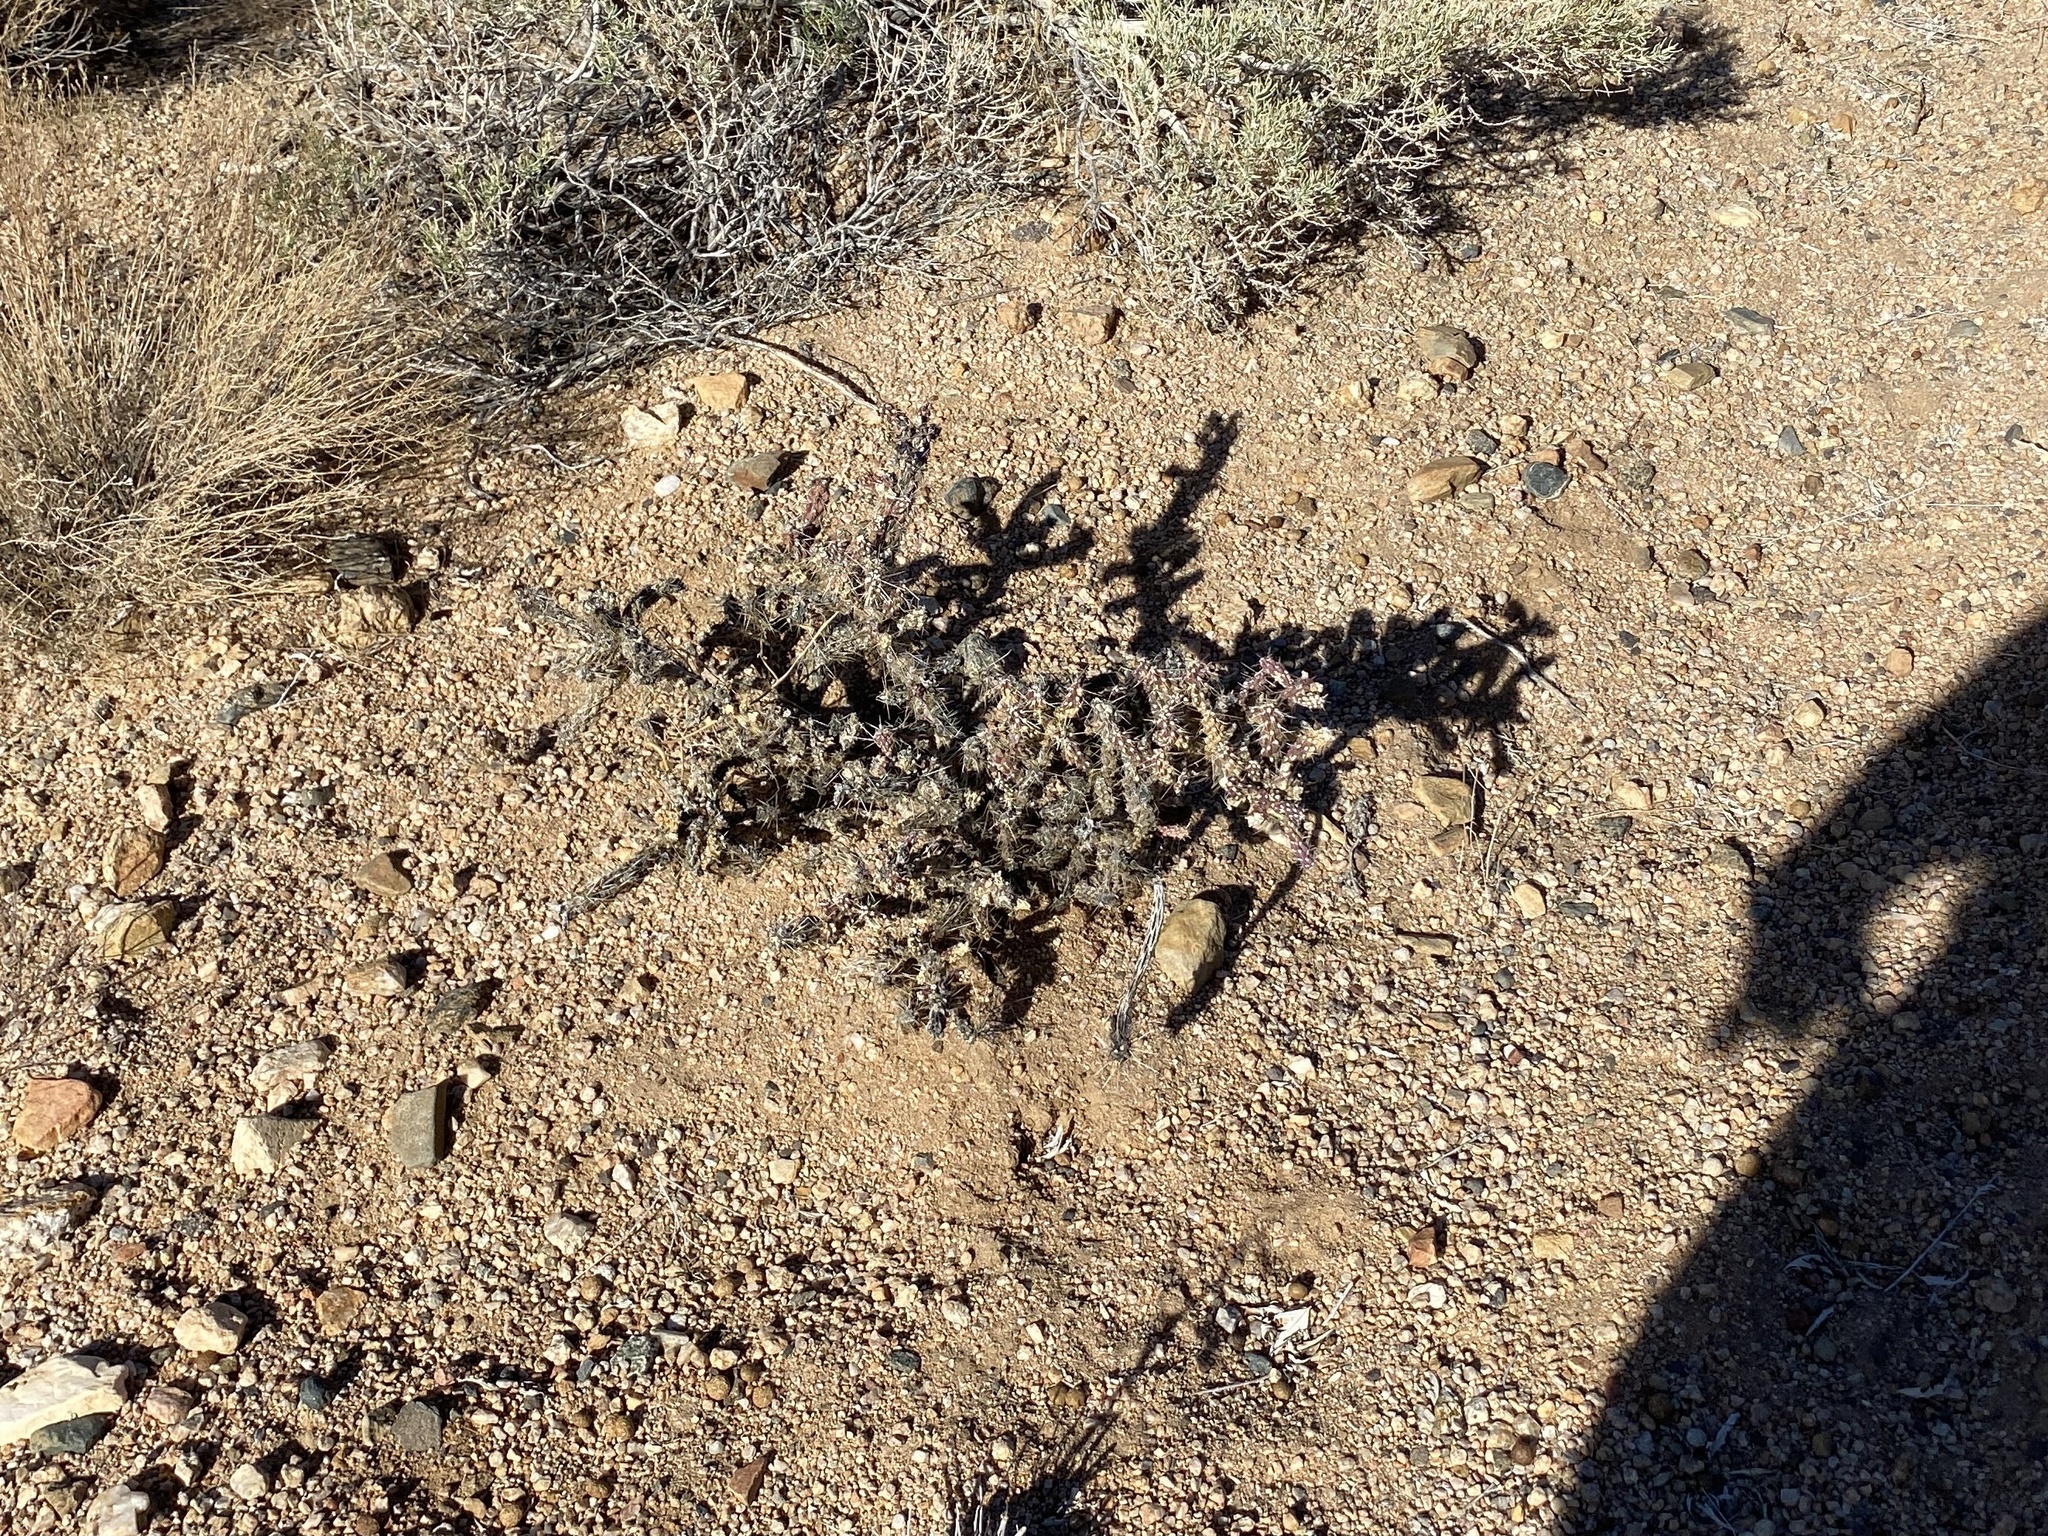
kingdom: Plantae
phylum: Tracheophyta
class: Magnoliopsida
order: Caryophyllales
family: Cactaceae
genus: Cylindropuntia
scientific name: Cylindropuntia whipplei
